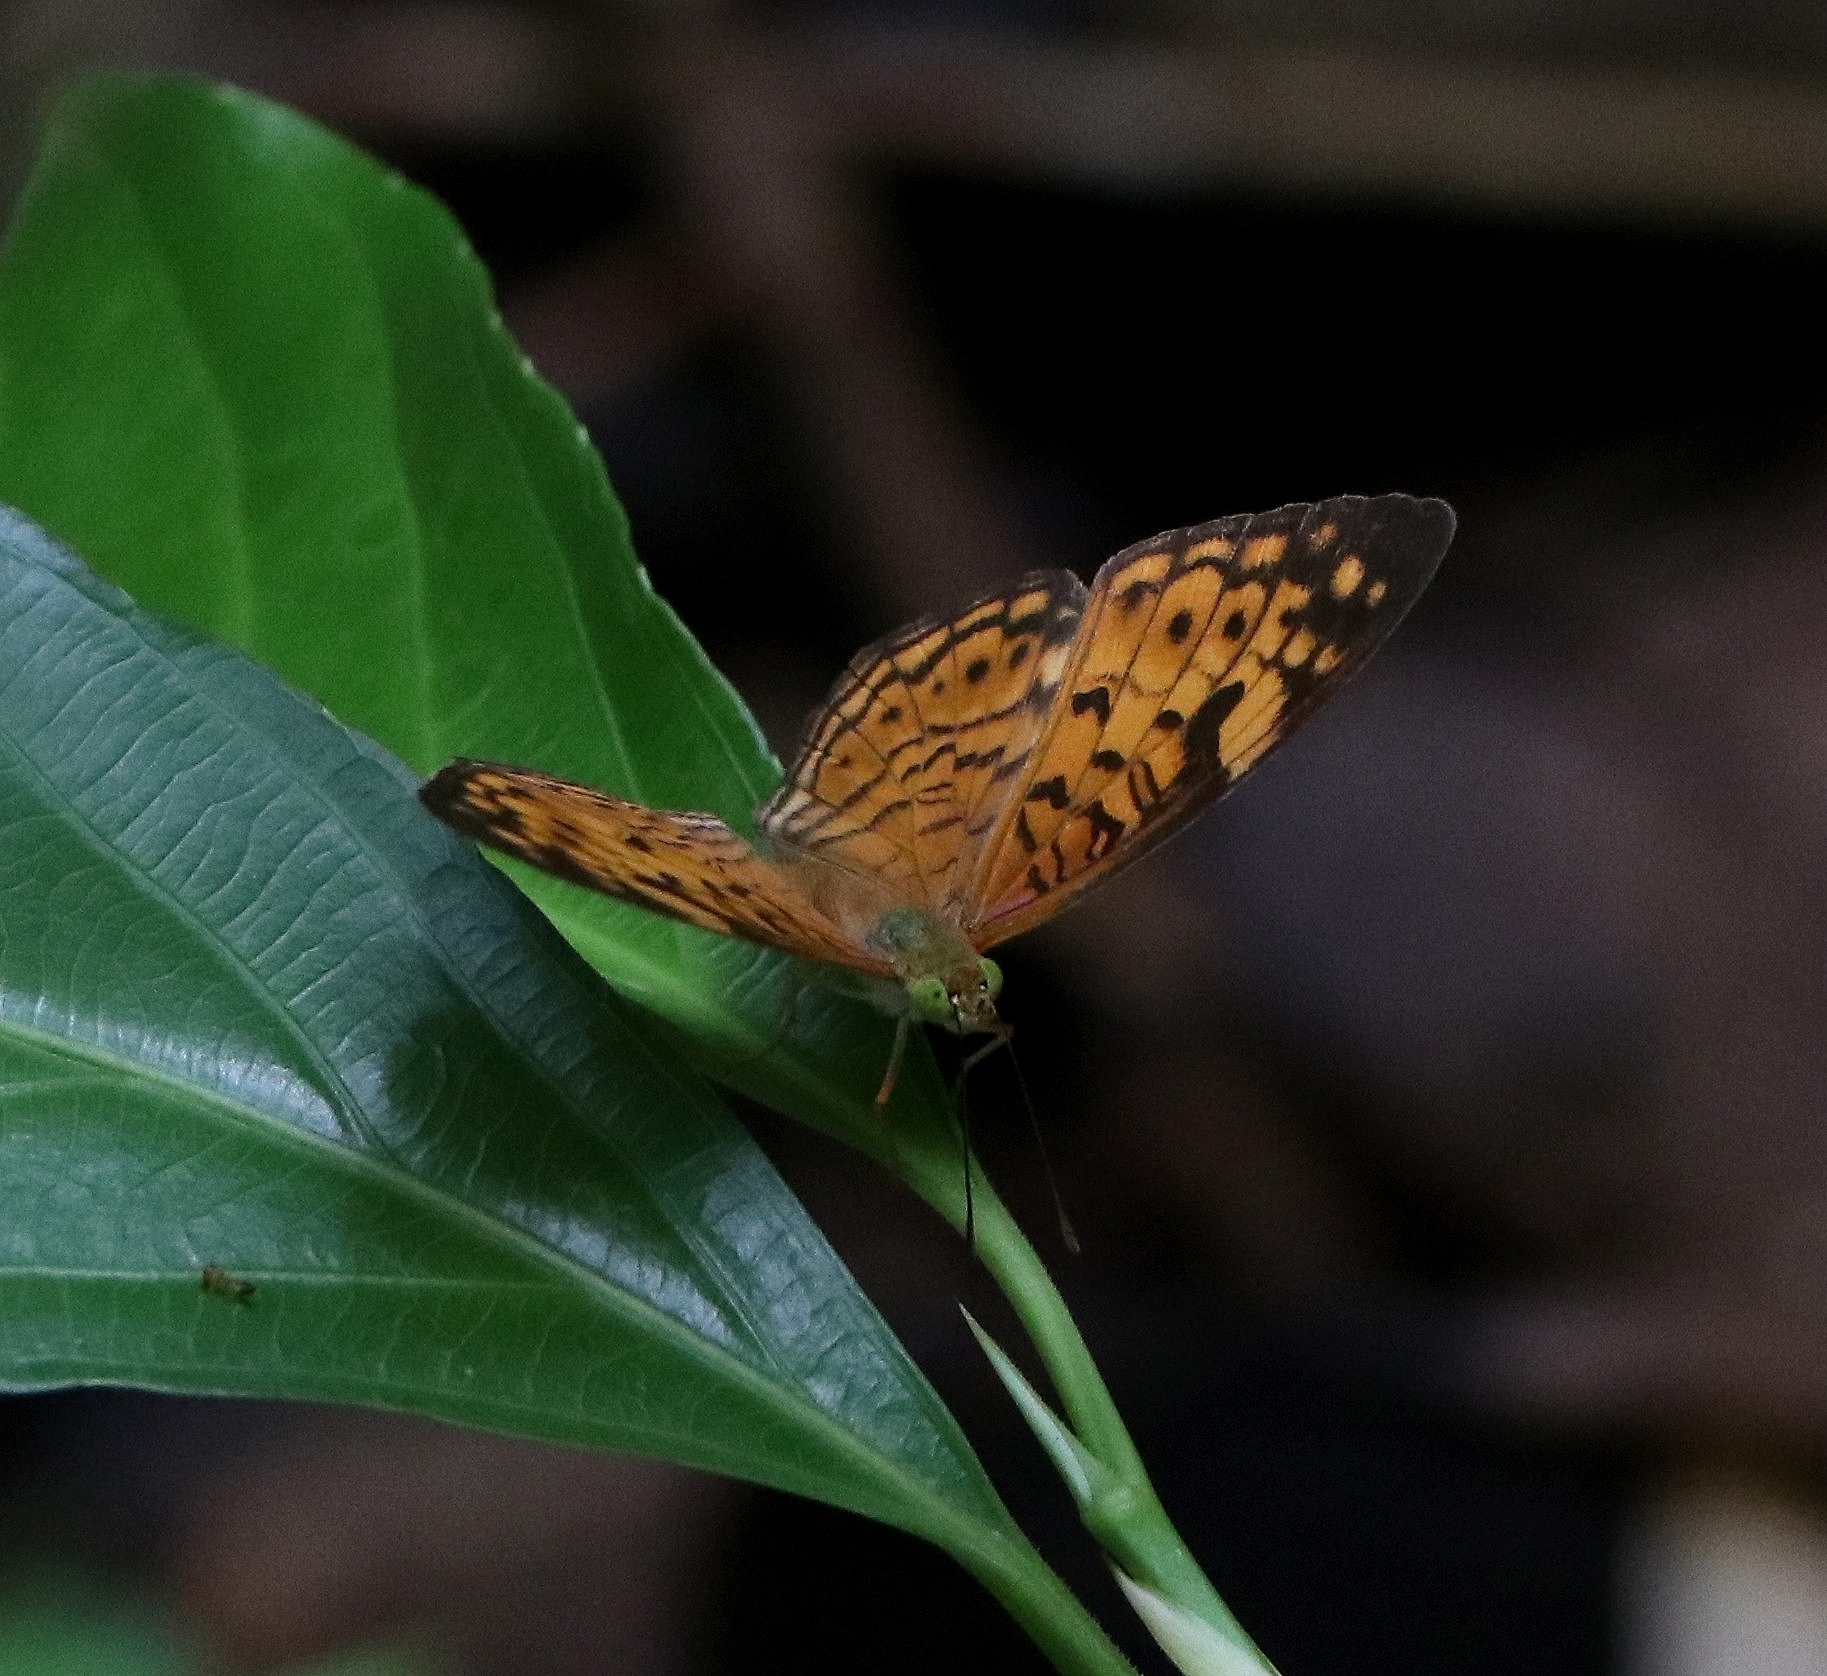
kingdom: Animalia
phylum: Arthropoda
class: Insecta
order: Lepidoptera
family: Nymphalidae
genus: Phalanta
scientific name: Phalanta alcippe
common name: Small leopard
